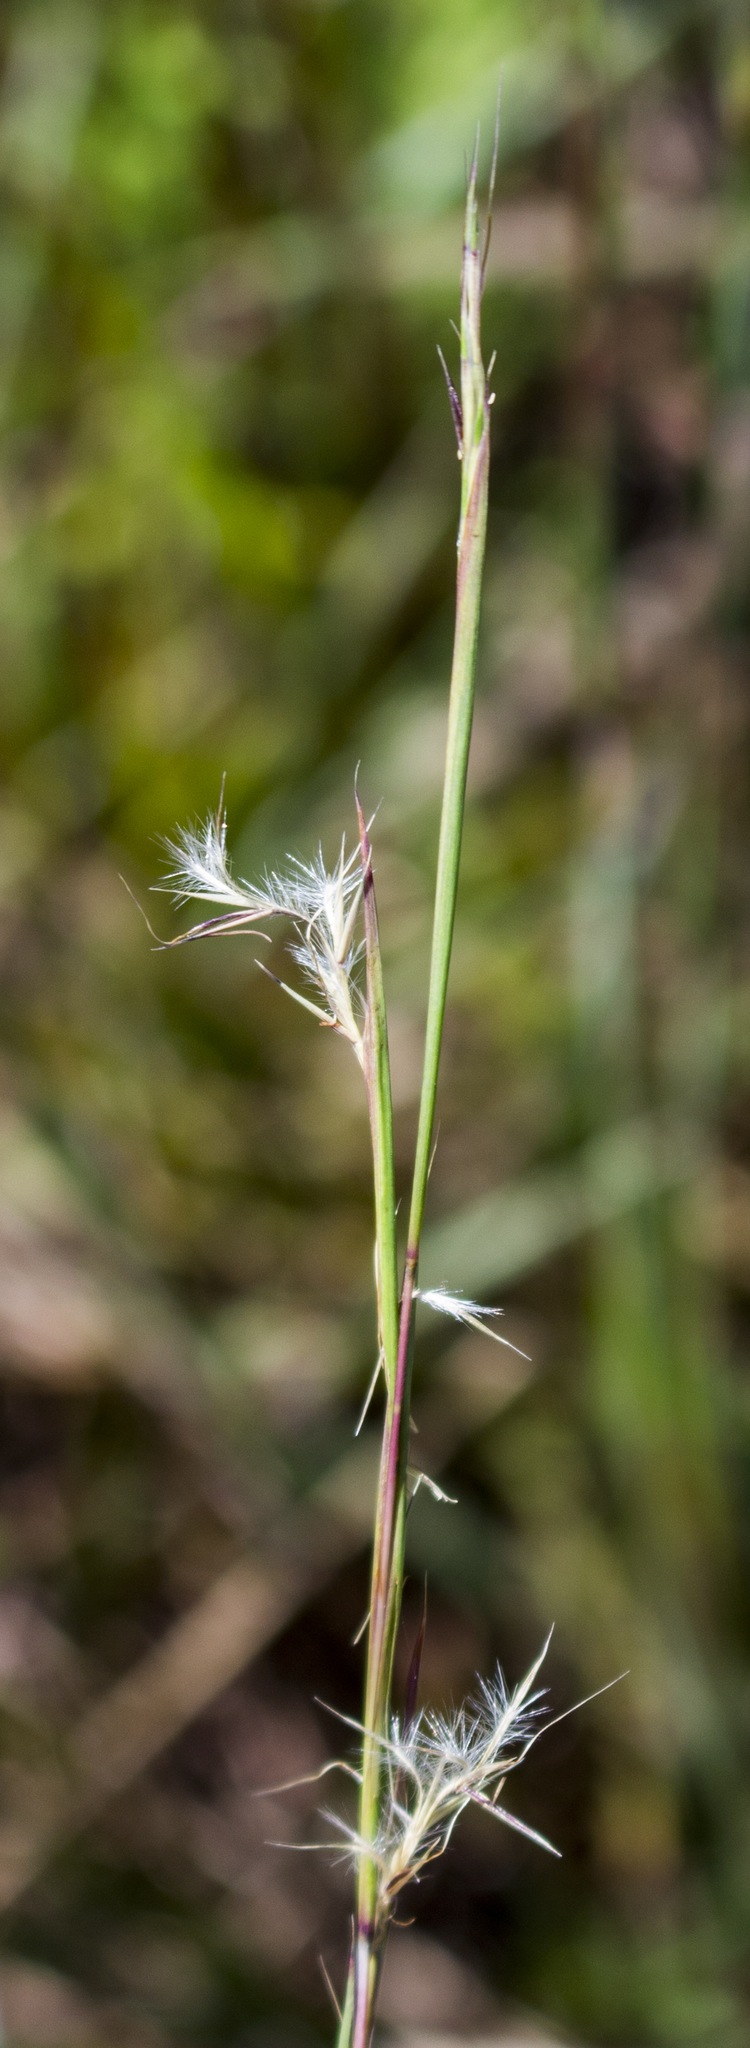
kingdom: Plantae
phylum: Tracheophyta
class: Liliopsida
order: Poales
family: Poaceae
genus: Schizachyrium
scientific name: Schizachyrium scoparium
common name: Little bluestem
